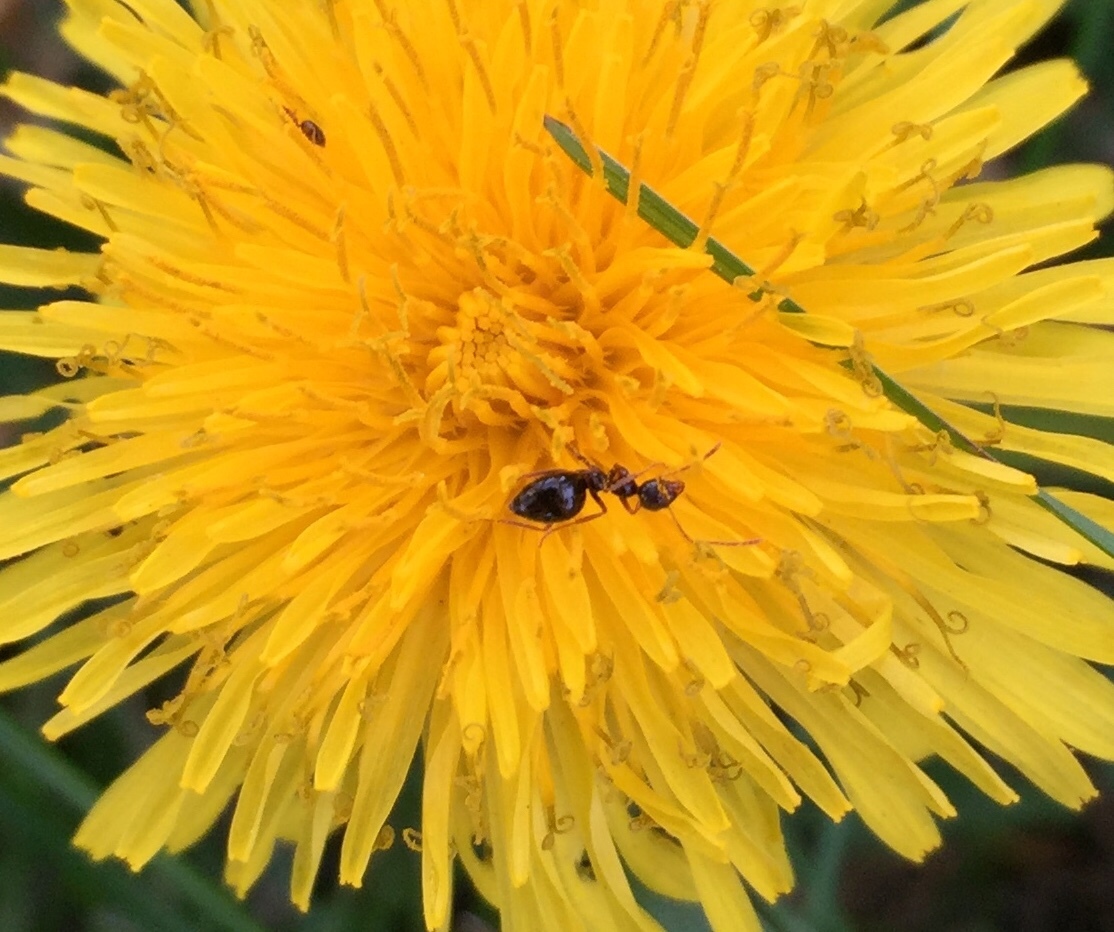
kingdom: Animalia
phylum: Arthropoda
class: Insecta
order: Hymenoptera
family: Formicidae
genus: Prenolepis
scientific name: Prenolepis imparis
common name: Small honey ant
